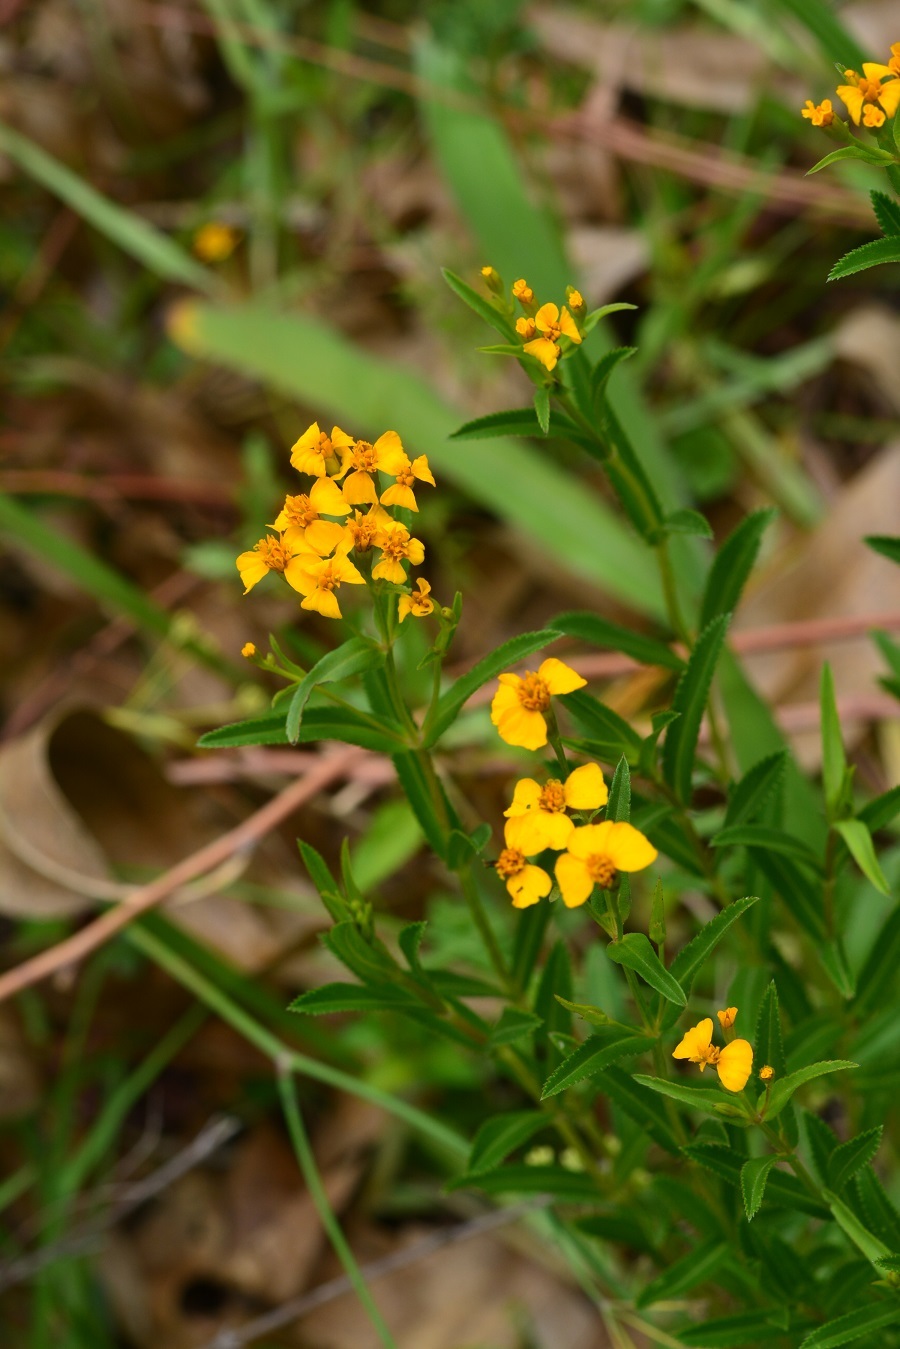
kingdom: Plantae
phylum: Tracheophyta
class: Magnoliopsida
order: Asterales
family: Asteraceae
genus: Tagetes
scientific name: Tagetes lucida
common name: Sweetscented marigold
